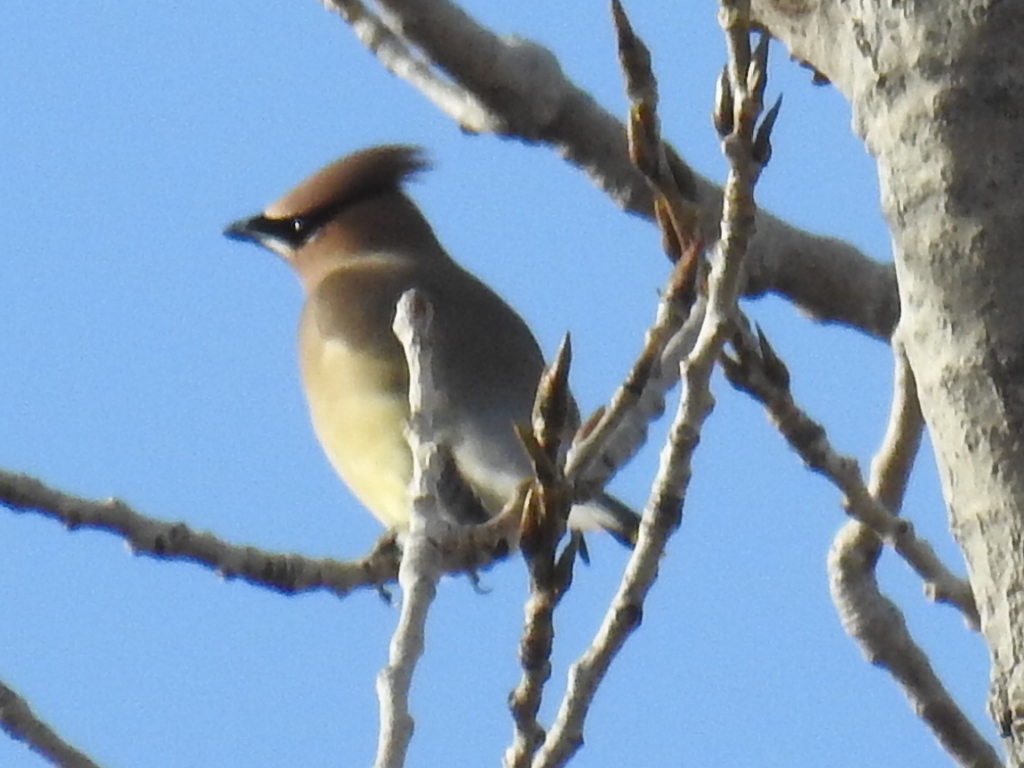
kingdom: Animalia
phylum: Chordata
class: Aves
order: Passeriformes
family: Bombycillidae
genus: Bombycilla
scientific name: Bombycilla cedrorum
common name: Cedar waxwing
